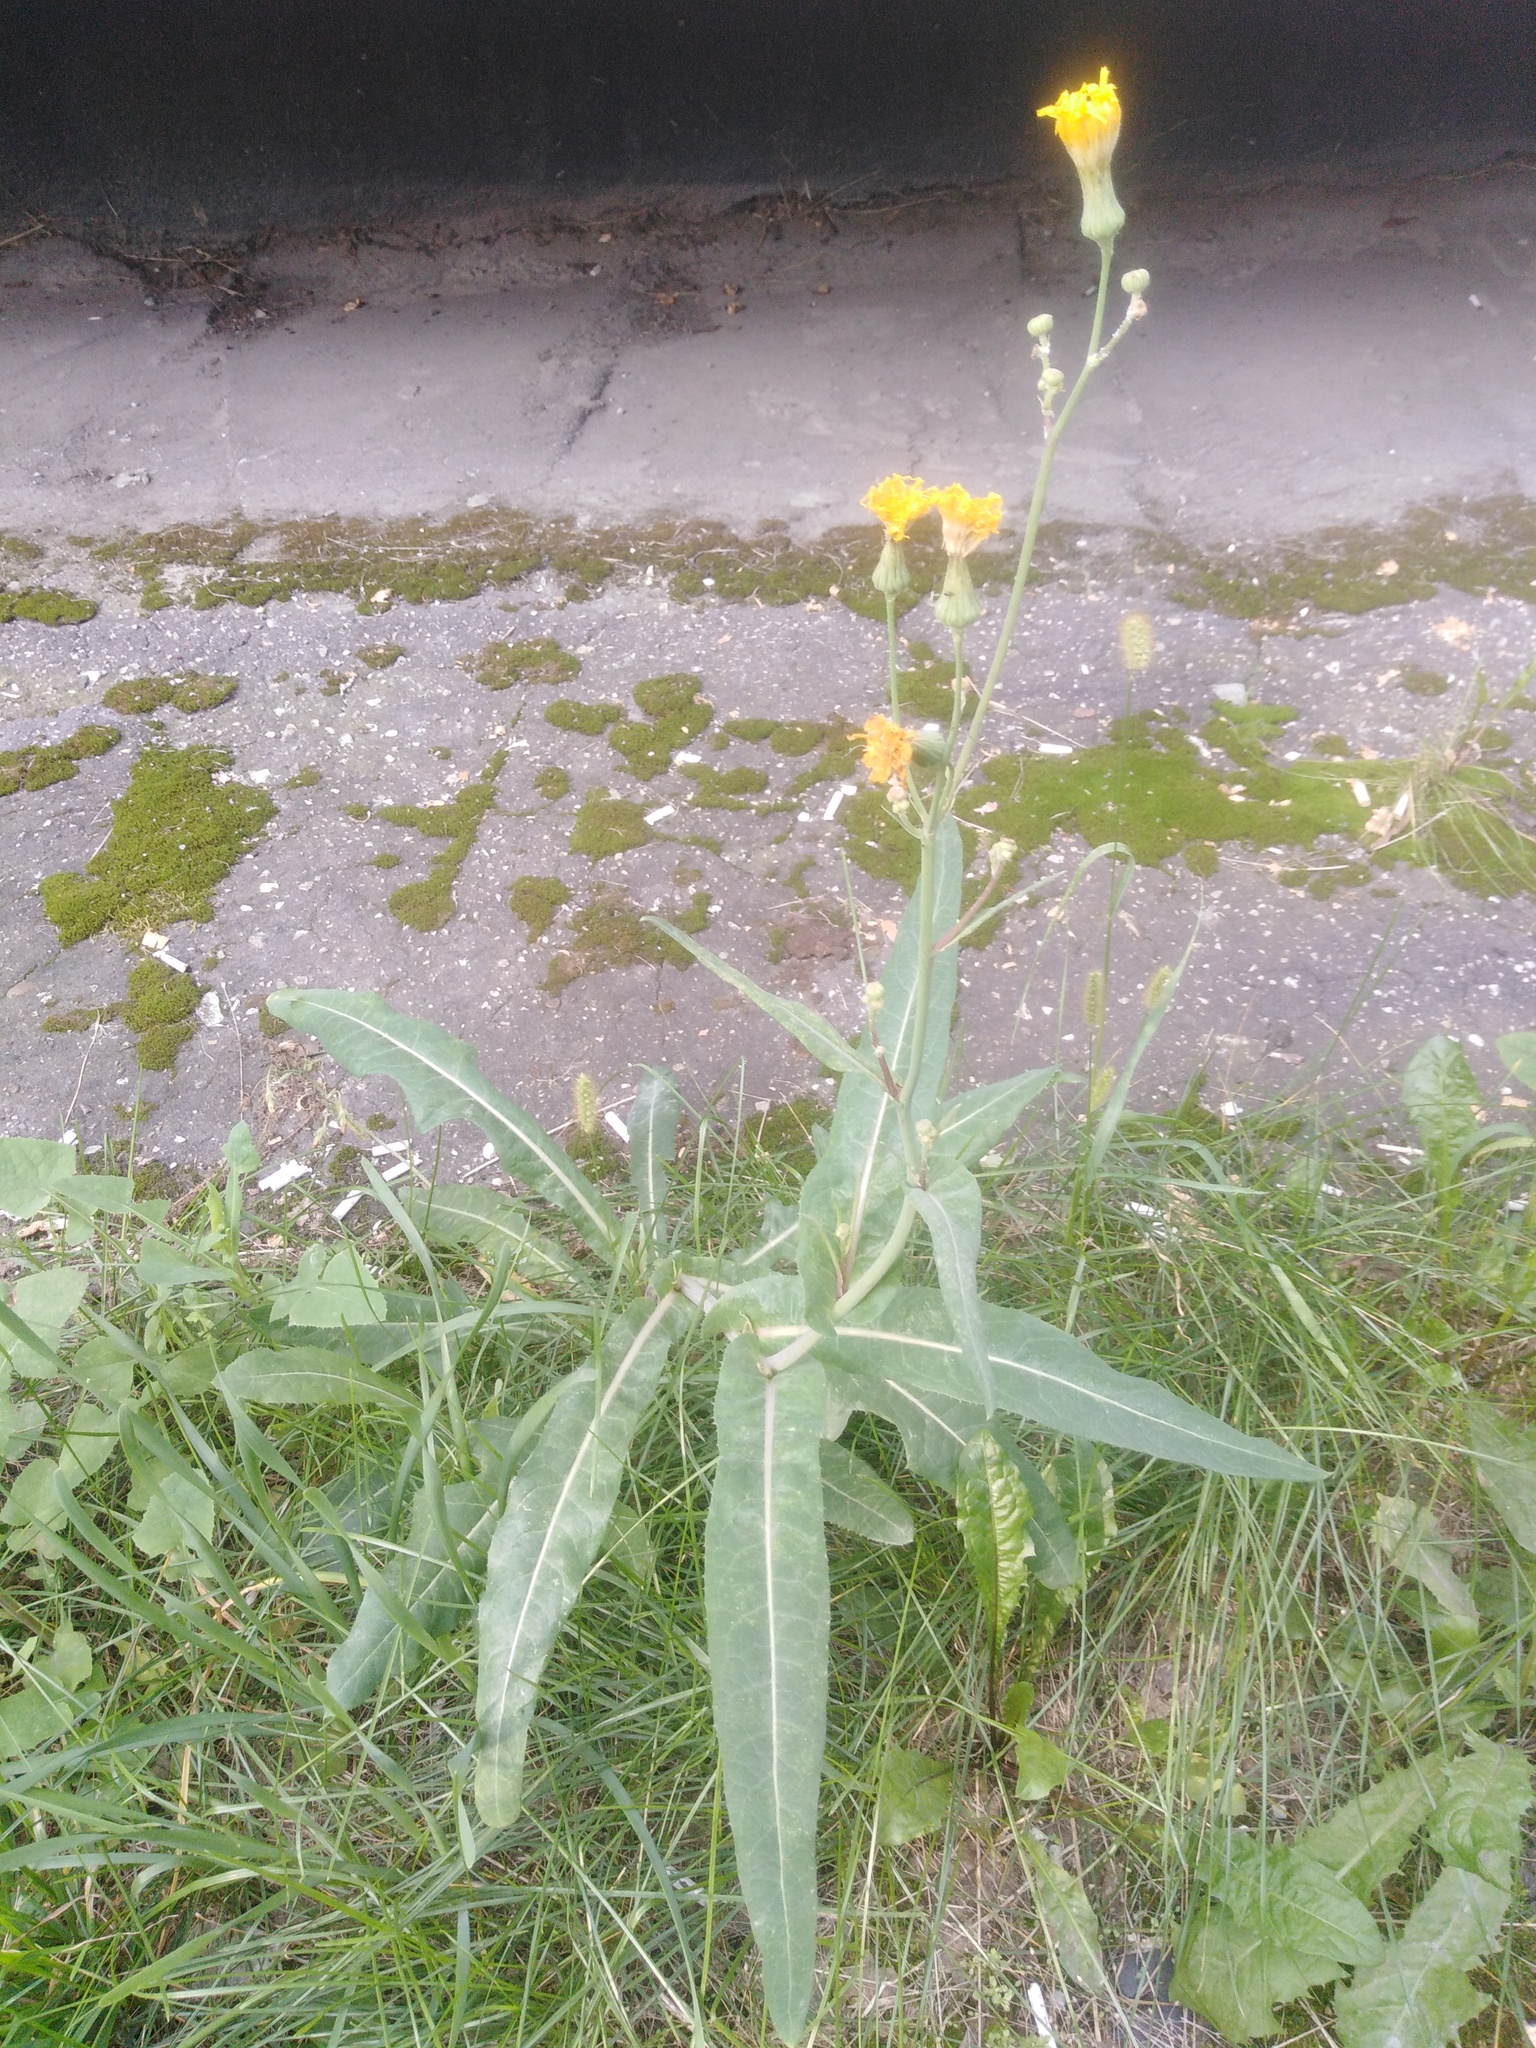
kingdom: Plantae
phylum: Tracheophyta
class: Magnoliopsida
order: Asterales
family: Asteraceae
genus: Sonchus
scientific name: Sonchus arvensis
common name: Perennial sow-thistle
